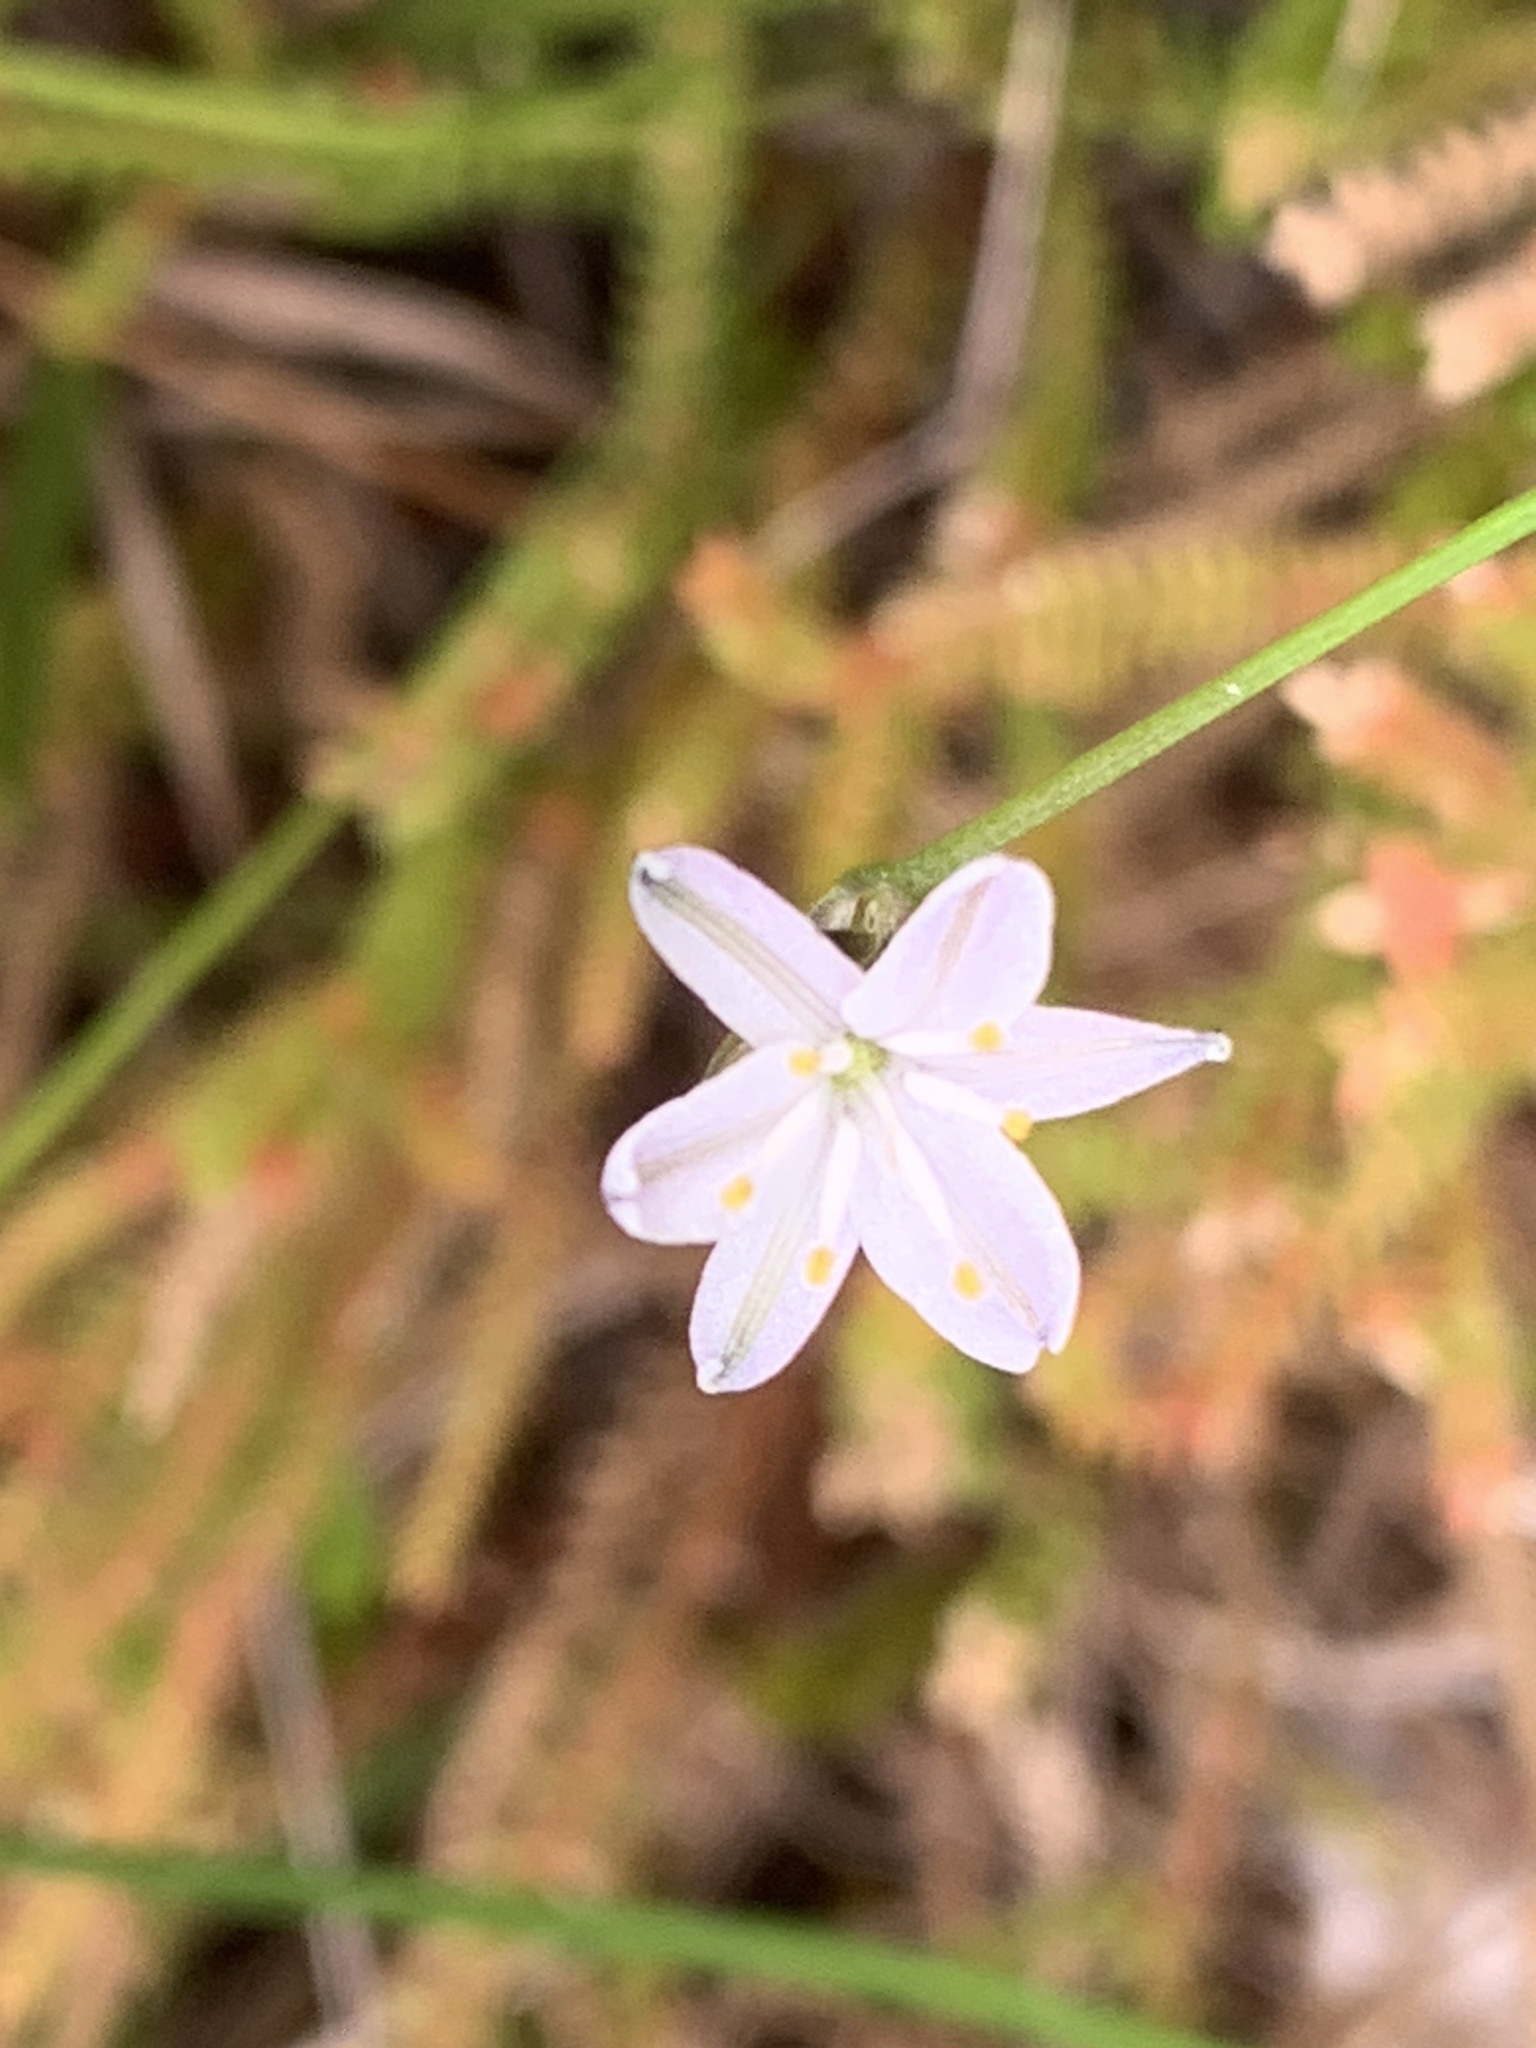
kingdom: Plantae
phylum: Tracheophyta
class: Liliopsida
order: Asparagales
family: Asphodelaceae
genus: Caesia
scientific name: Caesia parviflora
